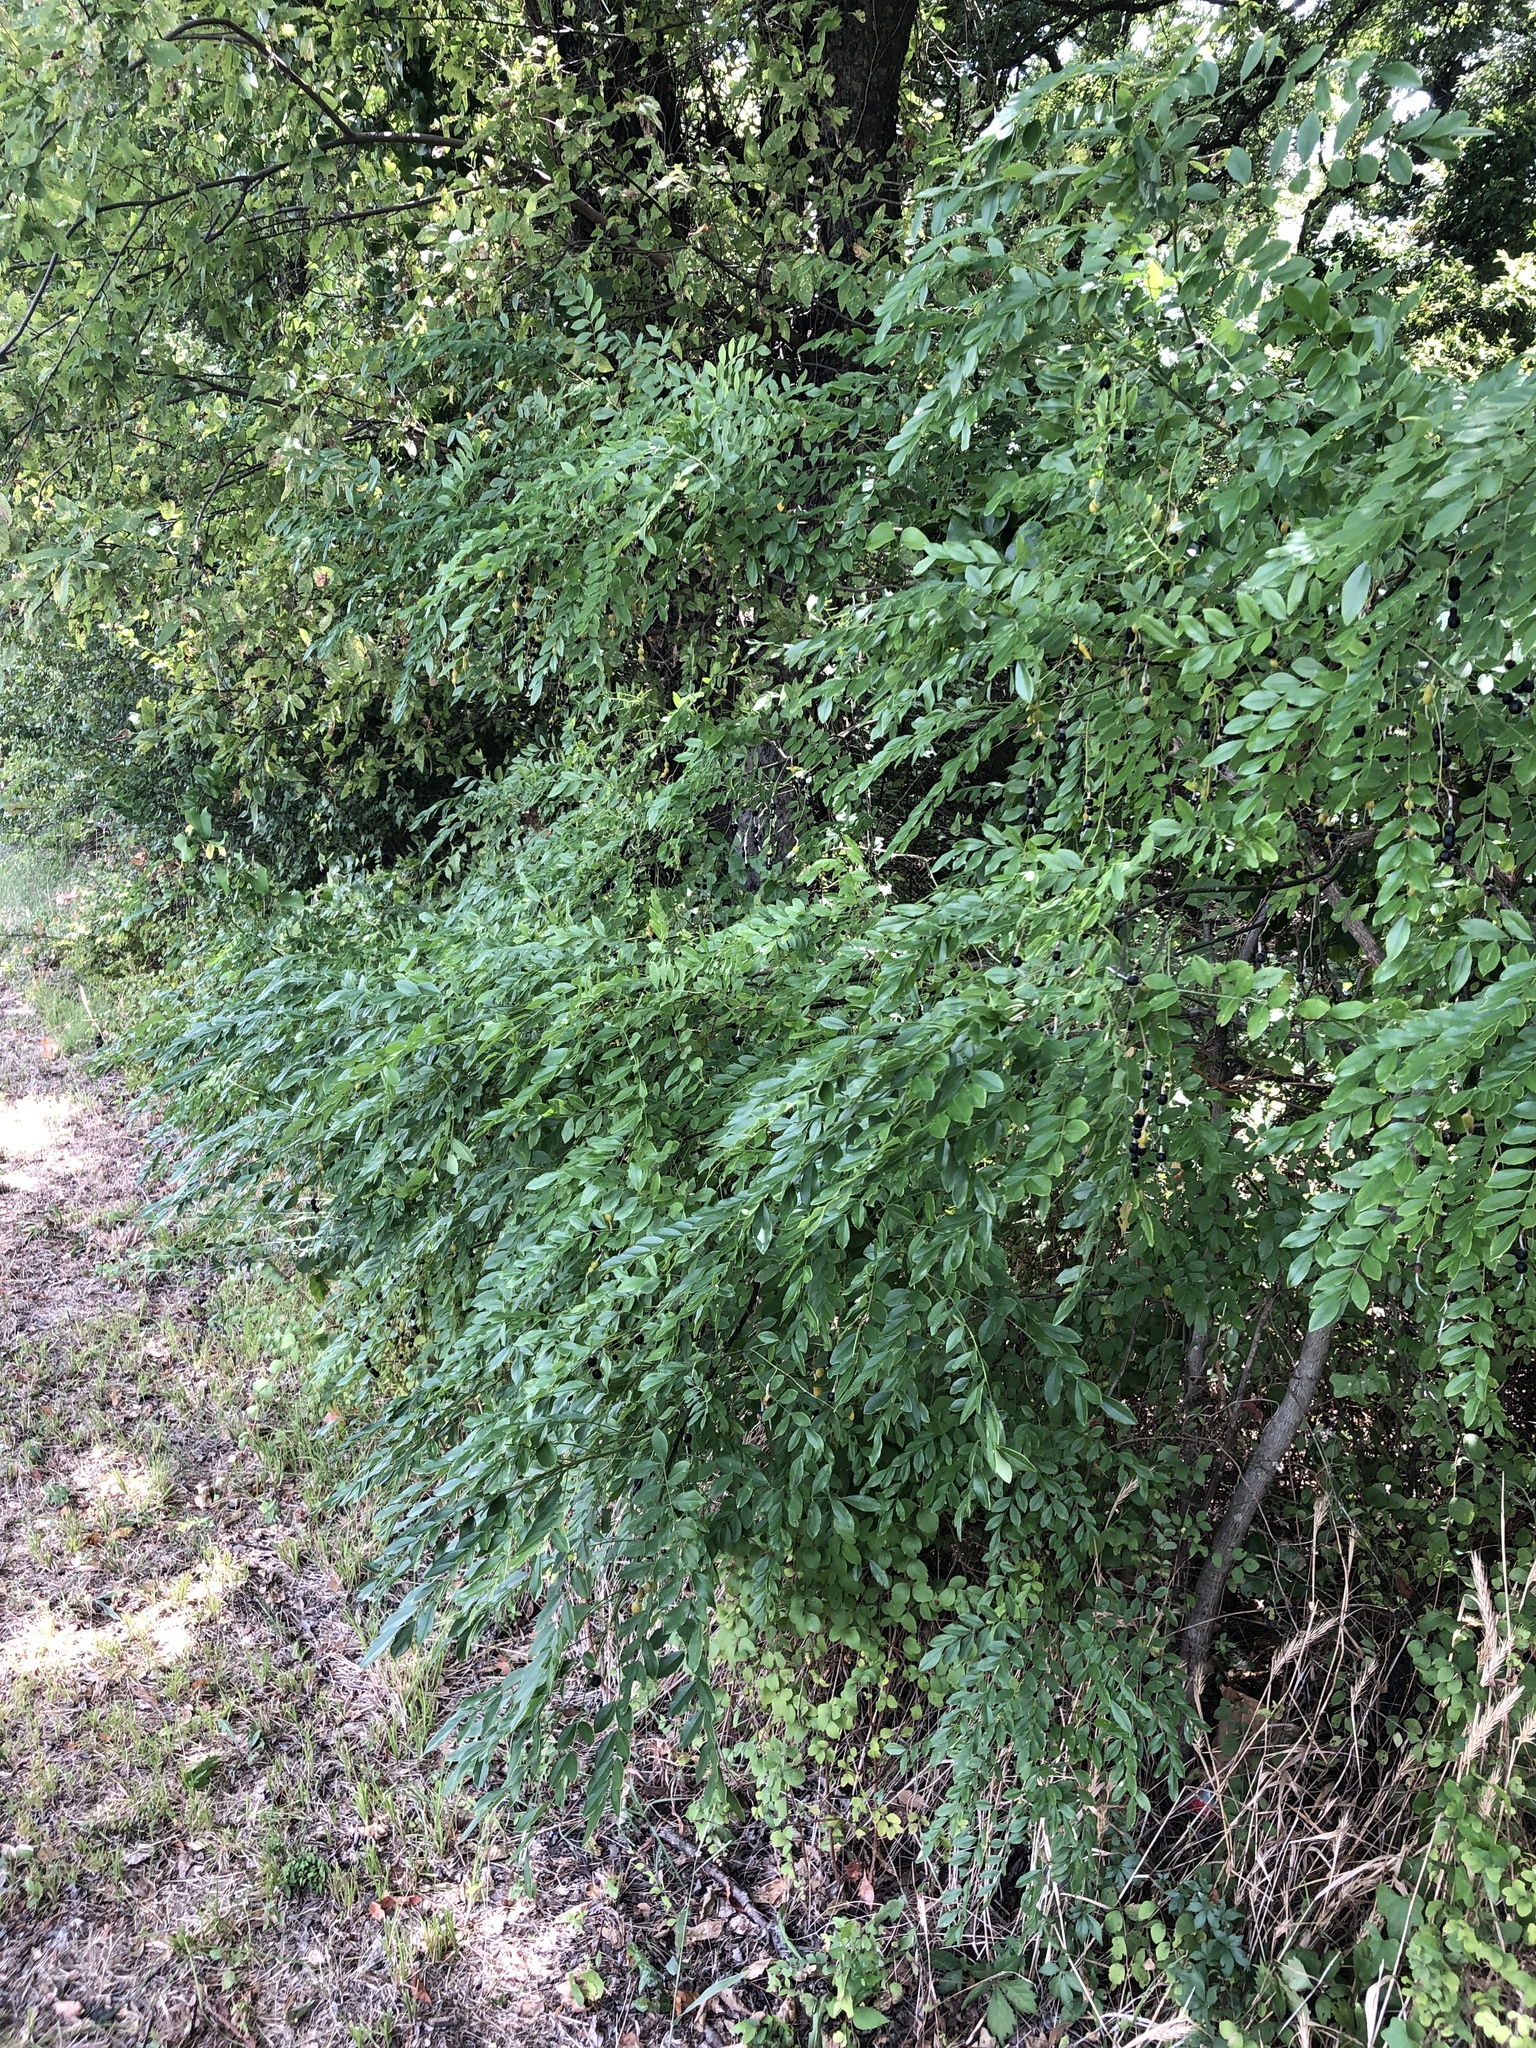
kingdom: Plantae
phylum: Tracheophyta
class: Magnoliopsida
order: Fabales
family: Fabaceae
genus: Styphnolobium
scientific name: Styphnolobium affine
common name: Texas sophora
